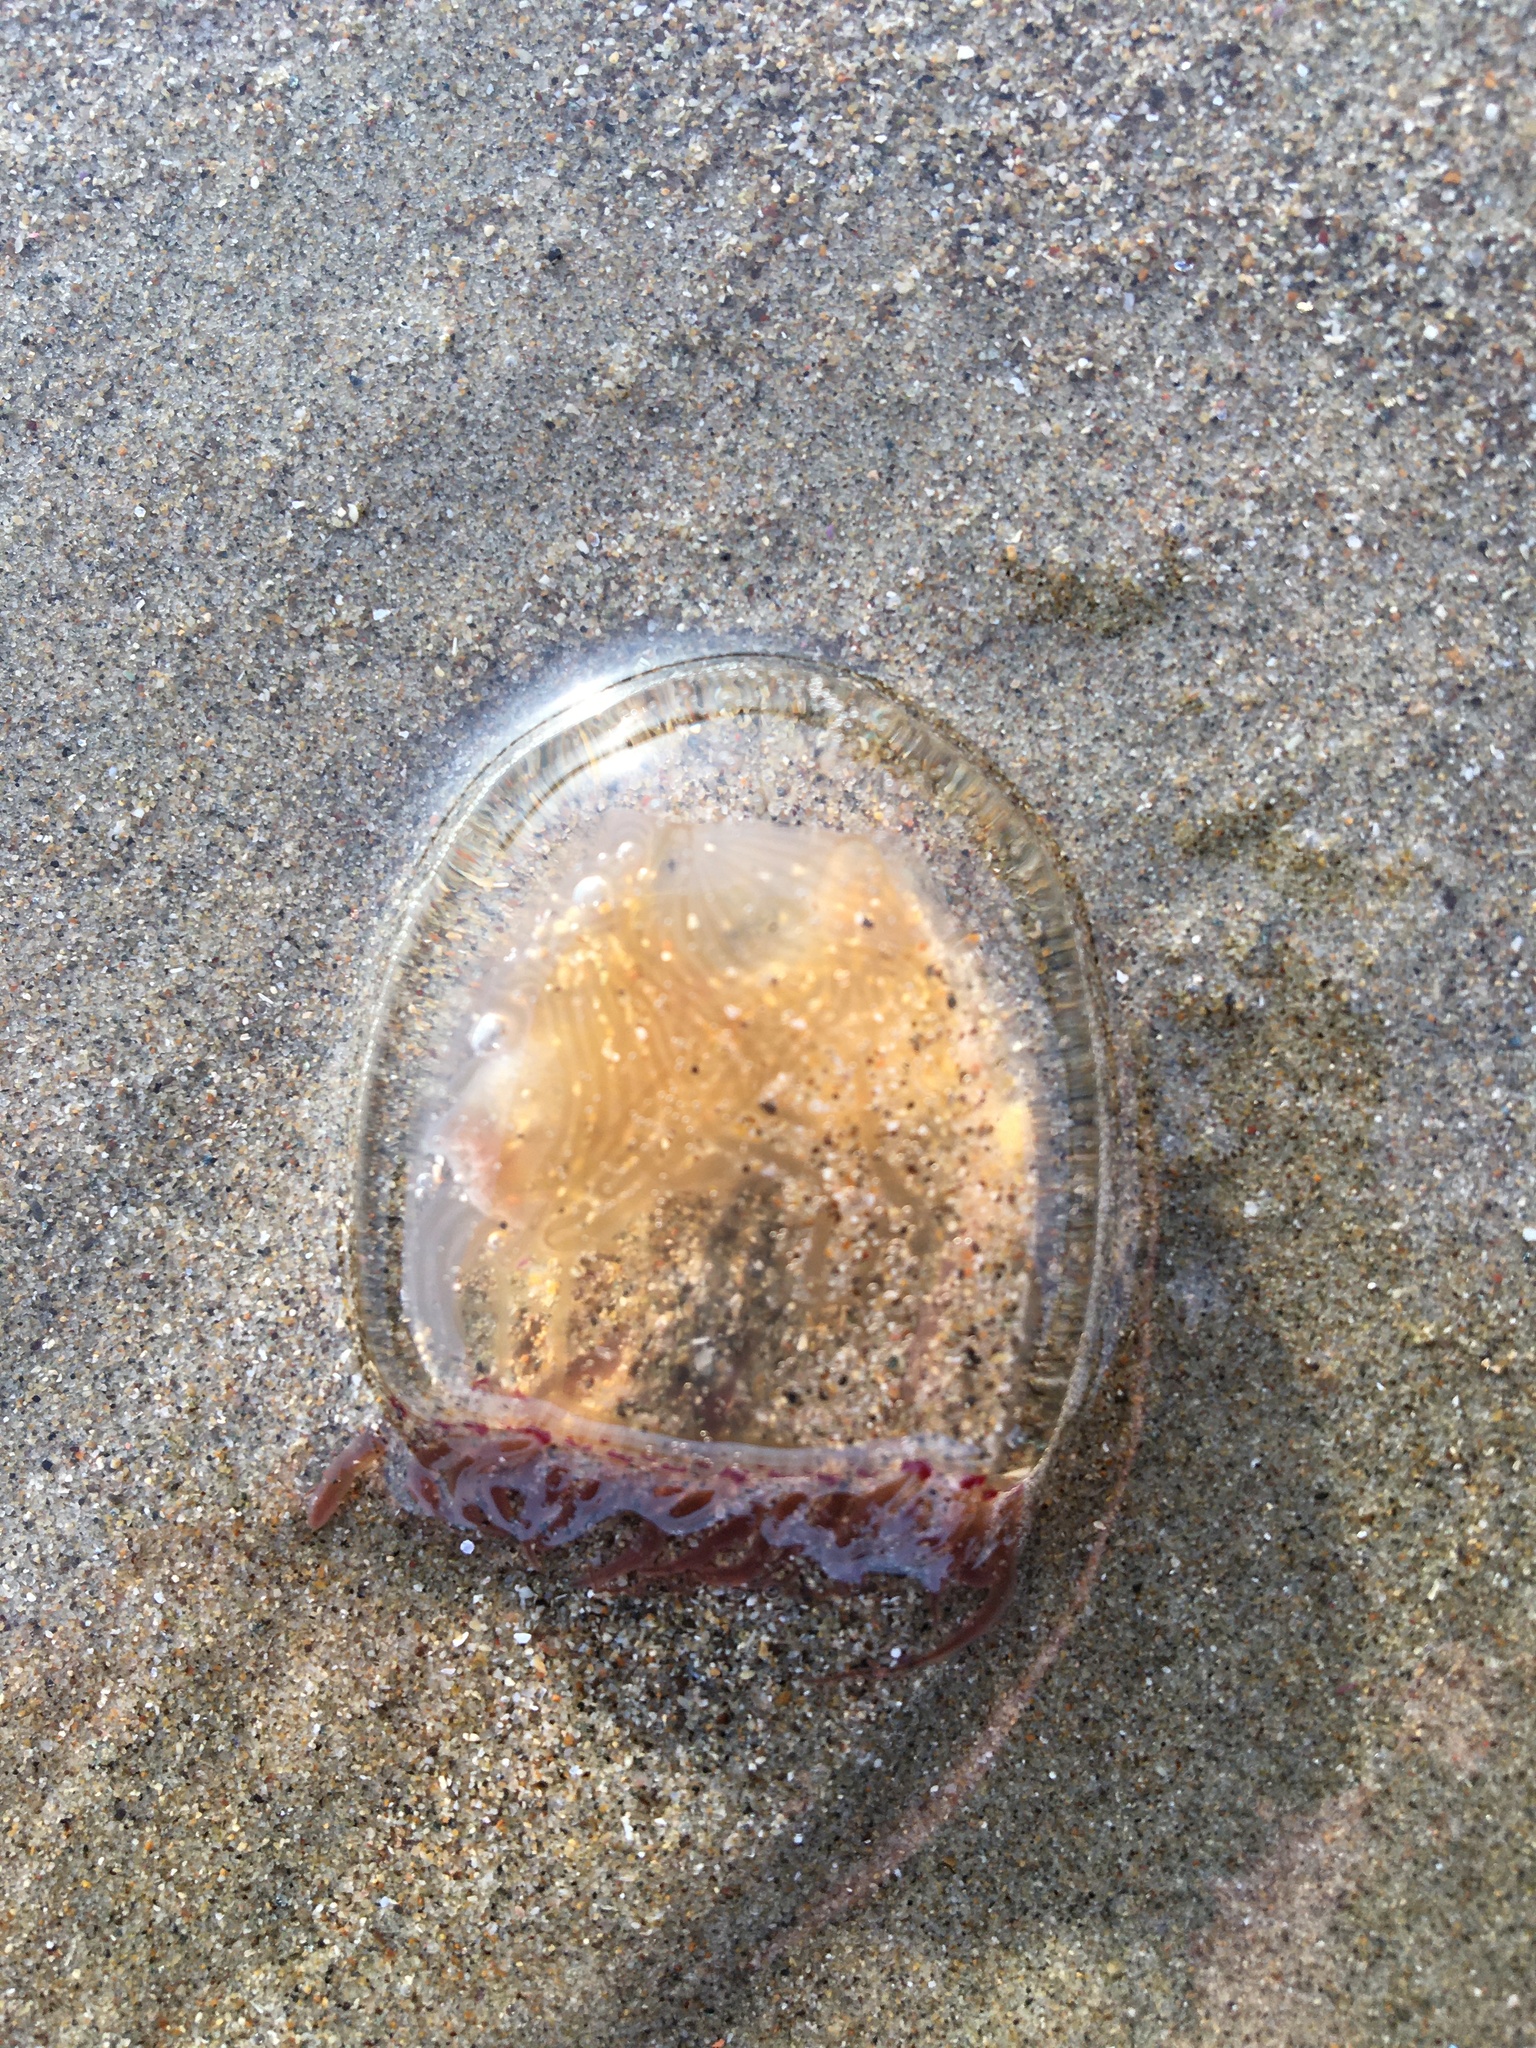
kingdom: Animalia
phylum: Cnidaria
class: Hydrozoa
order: Anthoathecata
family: Corynidae
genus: Polyorchis
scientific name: Polyorchis penicillatus
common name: Penicillate jellyfish
